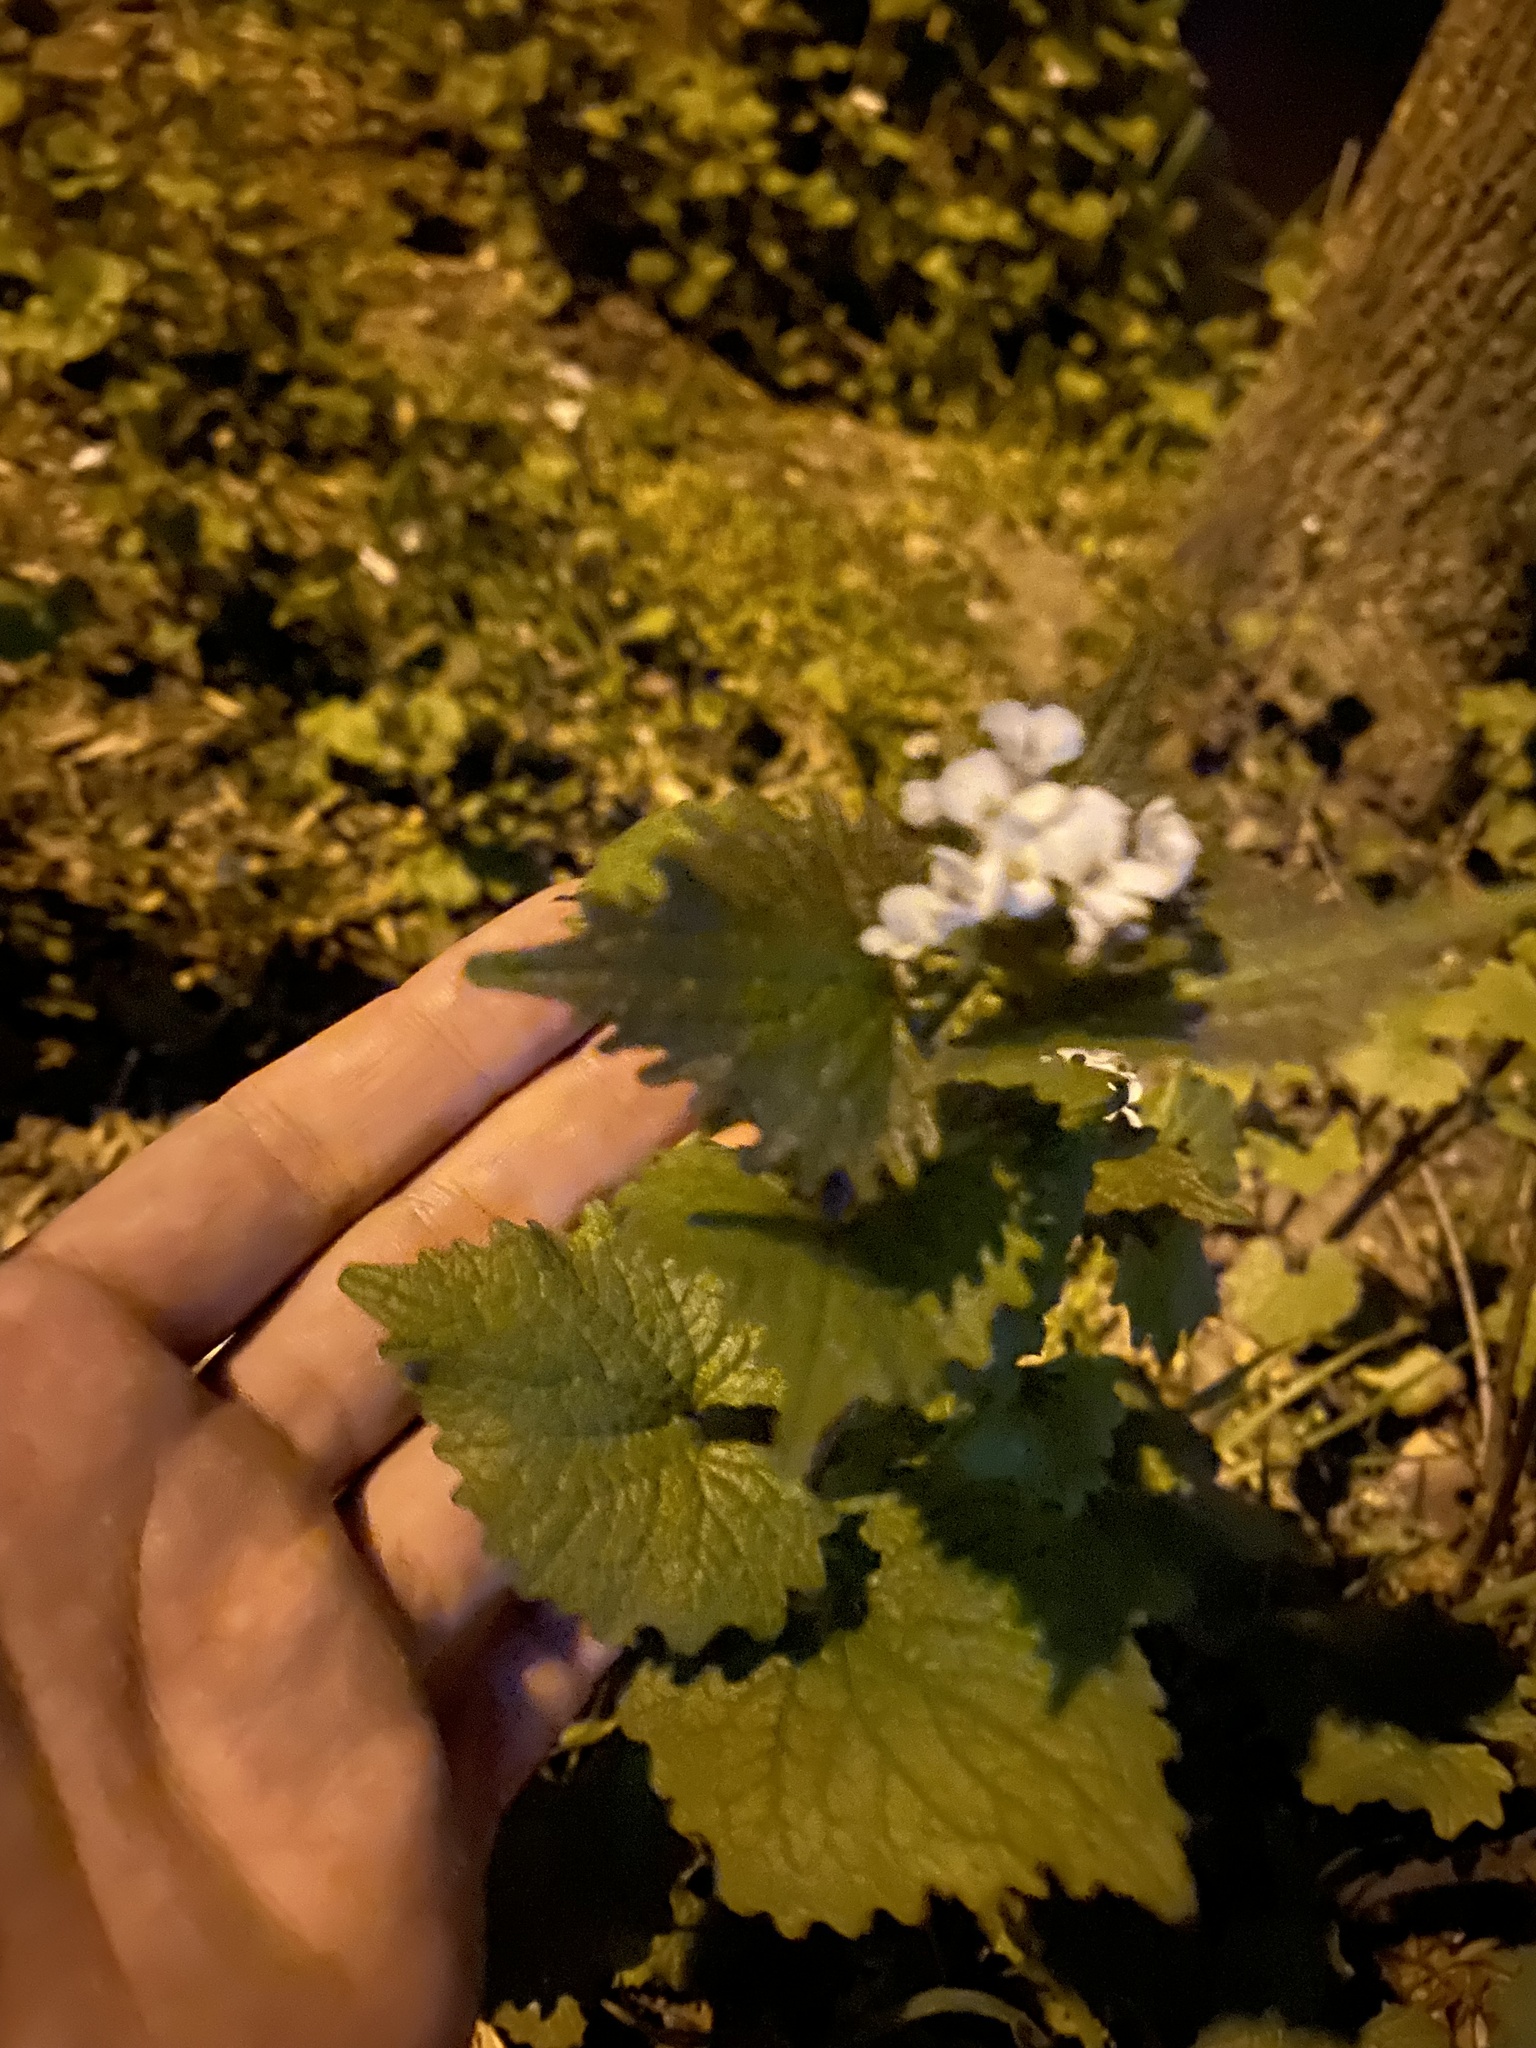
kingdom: Plantae
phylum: Tracheophyta
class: Magnoliopsida
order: Brassicales
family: Brassicaceae
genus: Alliaria
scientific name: Alliaria petiolata
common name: Garlic mustard
